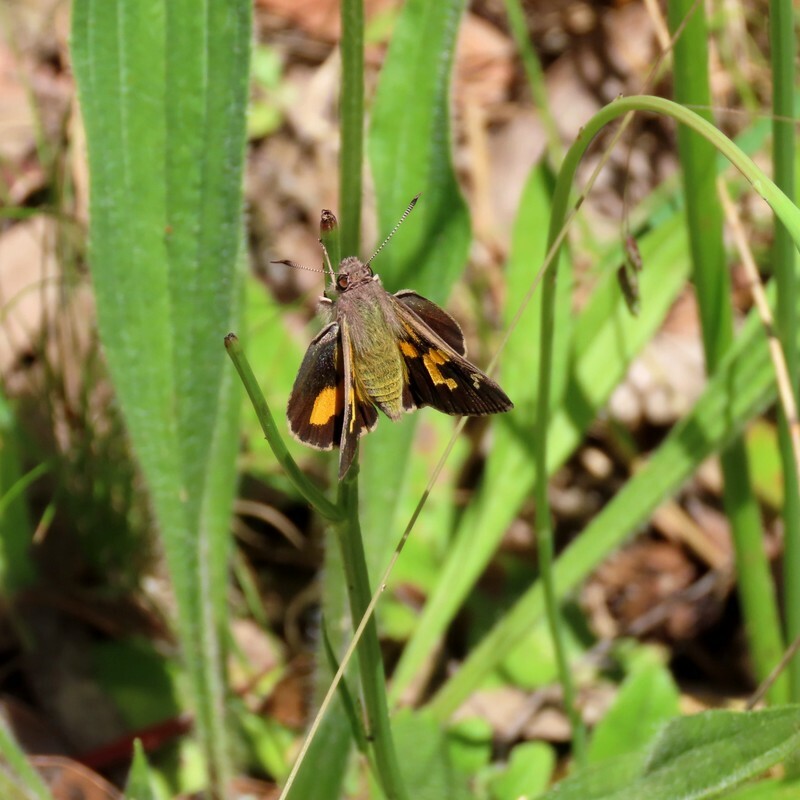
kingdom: Animalia
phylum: Arthropoda
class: Insecta
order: Lepidoptera
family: Hesperiidae
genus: Trapezites
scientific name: Trapezites phigalioides
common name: Montane ochre
